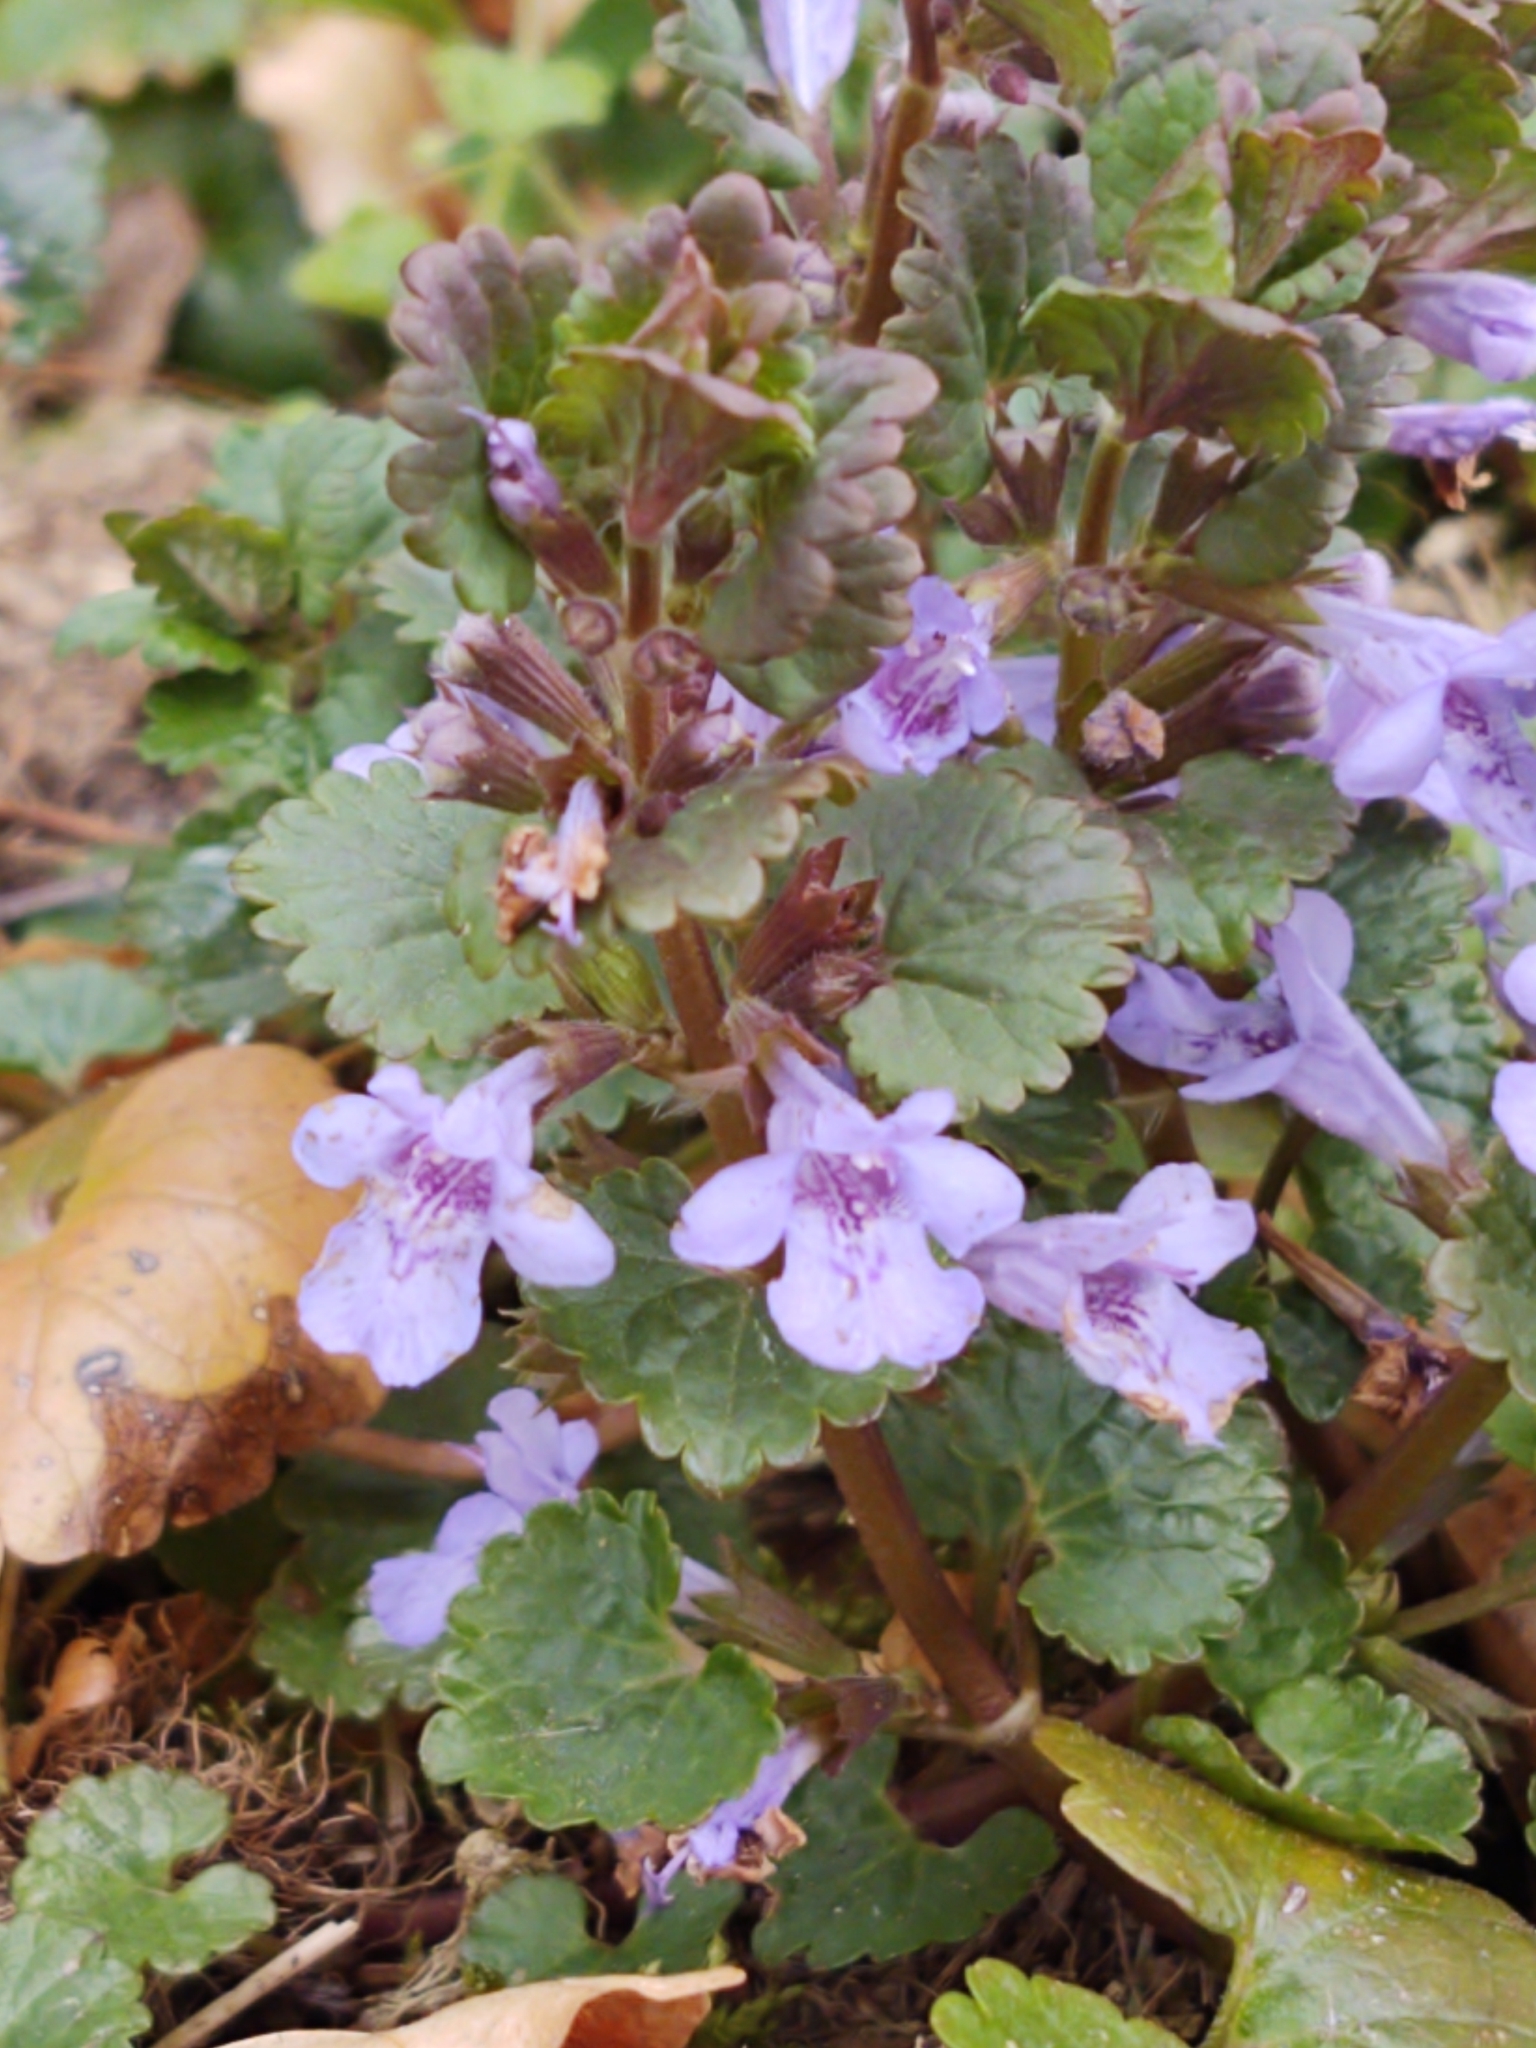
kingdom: Plantae
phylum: Tracheophyta
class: Magnoliopsida
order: Lamiales
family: Lamiaceae
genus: Glechoma
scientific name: Glechoma hederacea
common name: Ground ivy
